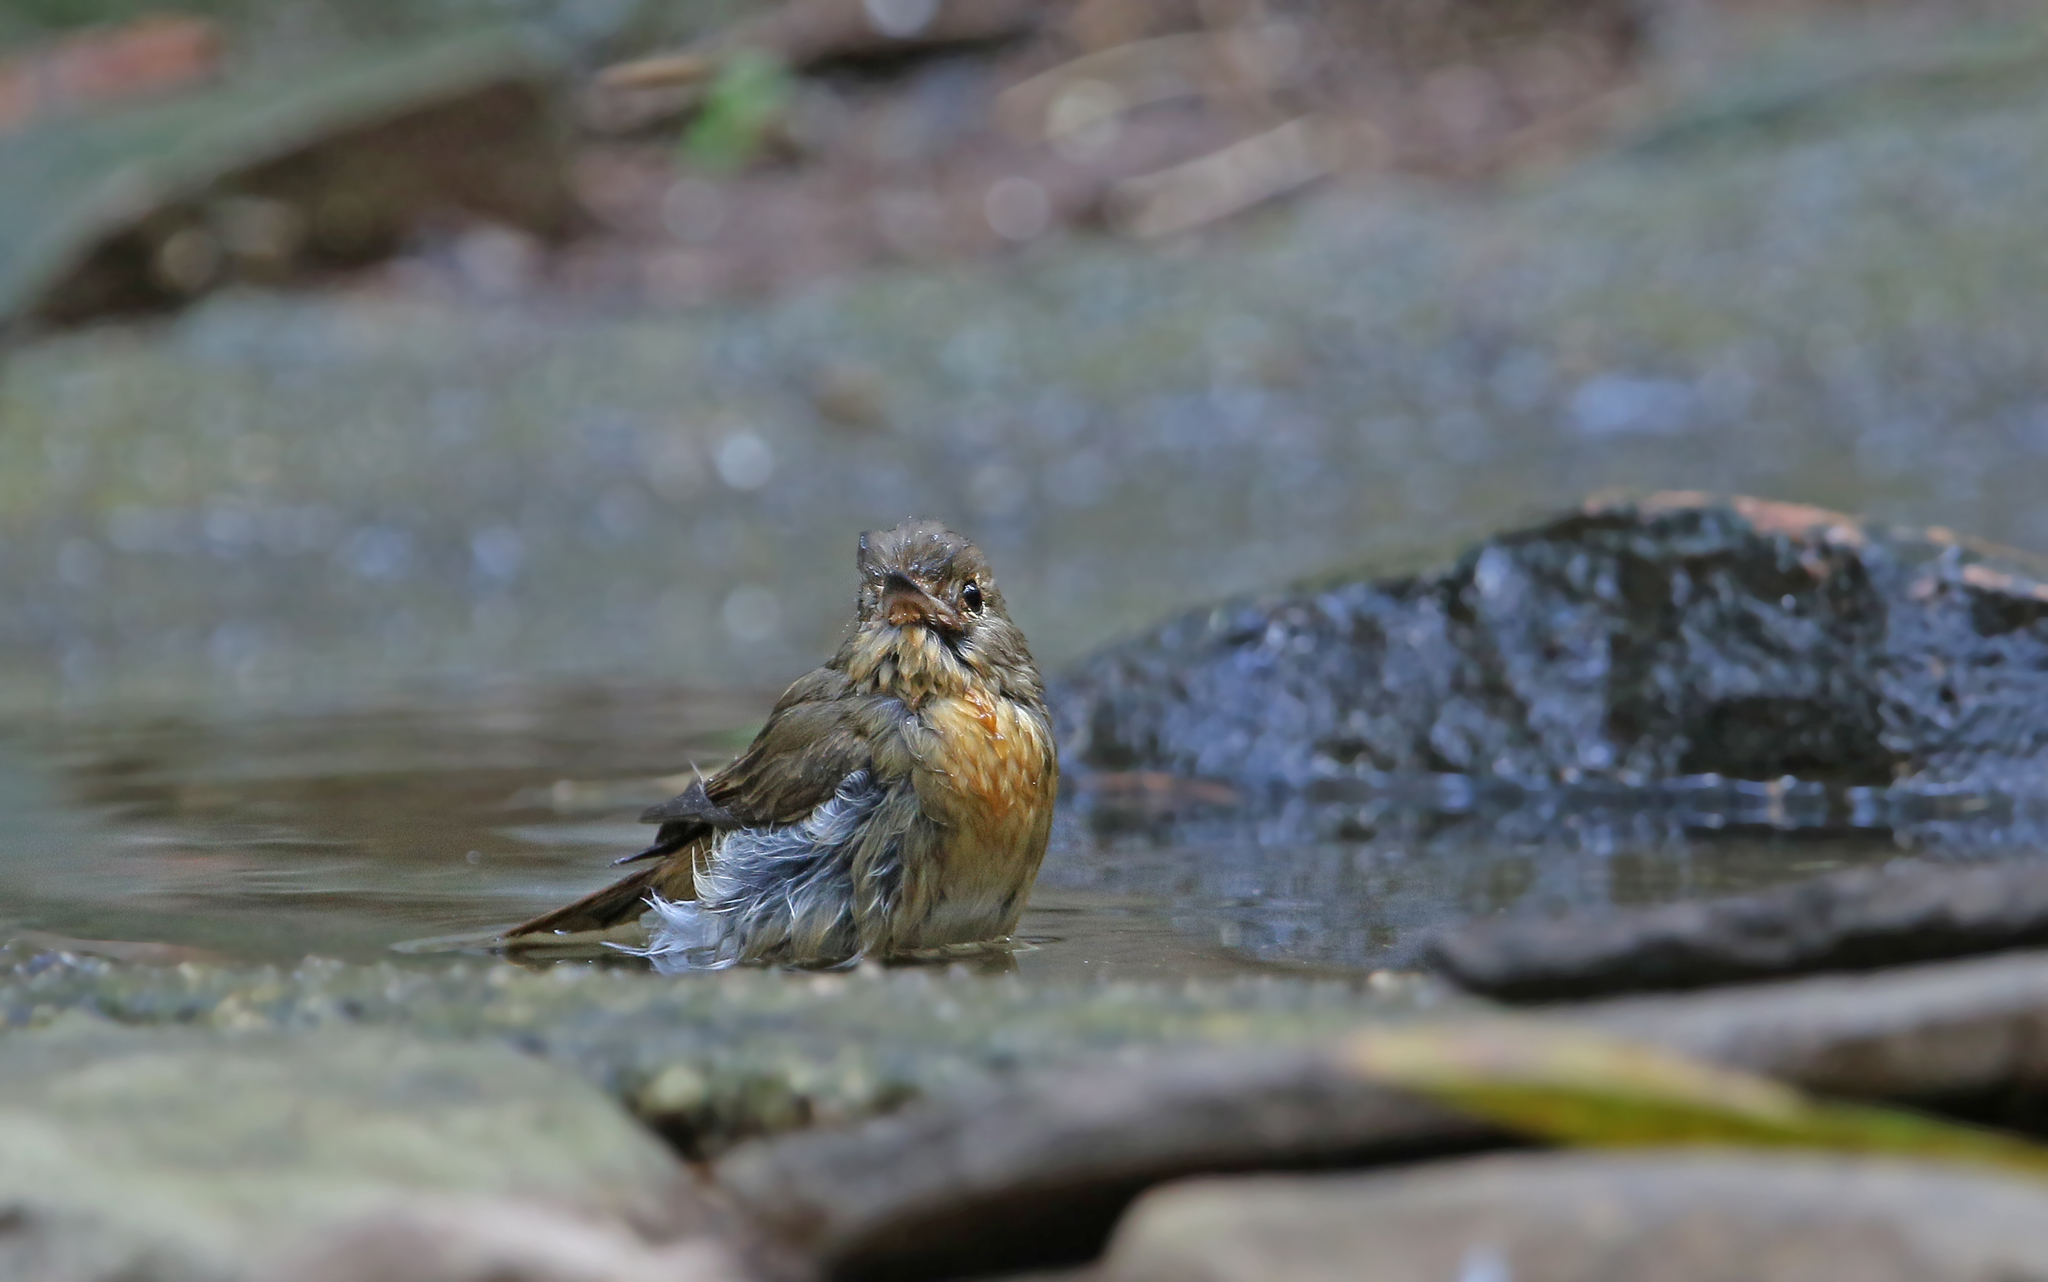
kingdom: Animalia
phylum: Chordata
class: Aves
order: Passeriformes
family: Muscicapidae
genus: Cyornis
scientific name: Cyornis tickelliae
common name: Tickell's blue flycatcher
